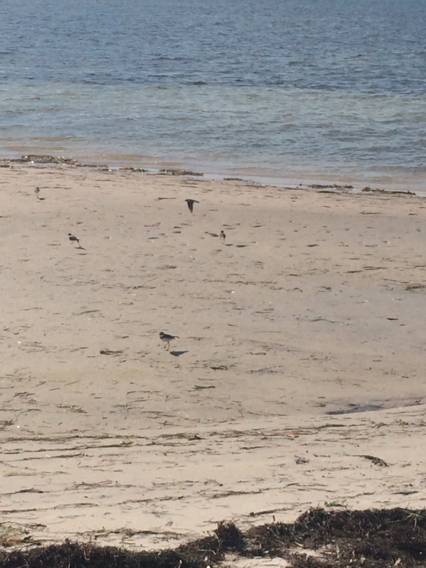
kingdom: Animalia
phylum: Chordata
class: Aves
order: Charadriiformes
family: Charadriidae
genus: Charadrius
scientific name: Charadrius semipalmatus
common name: Semipalmated plover
